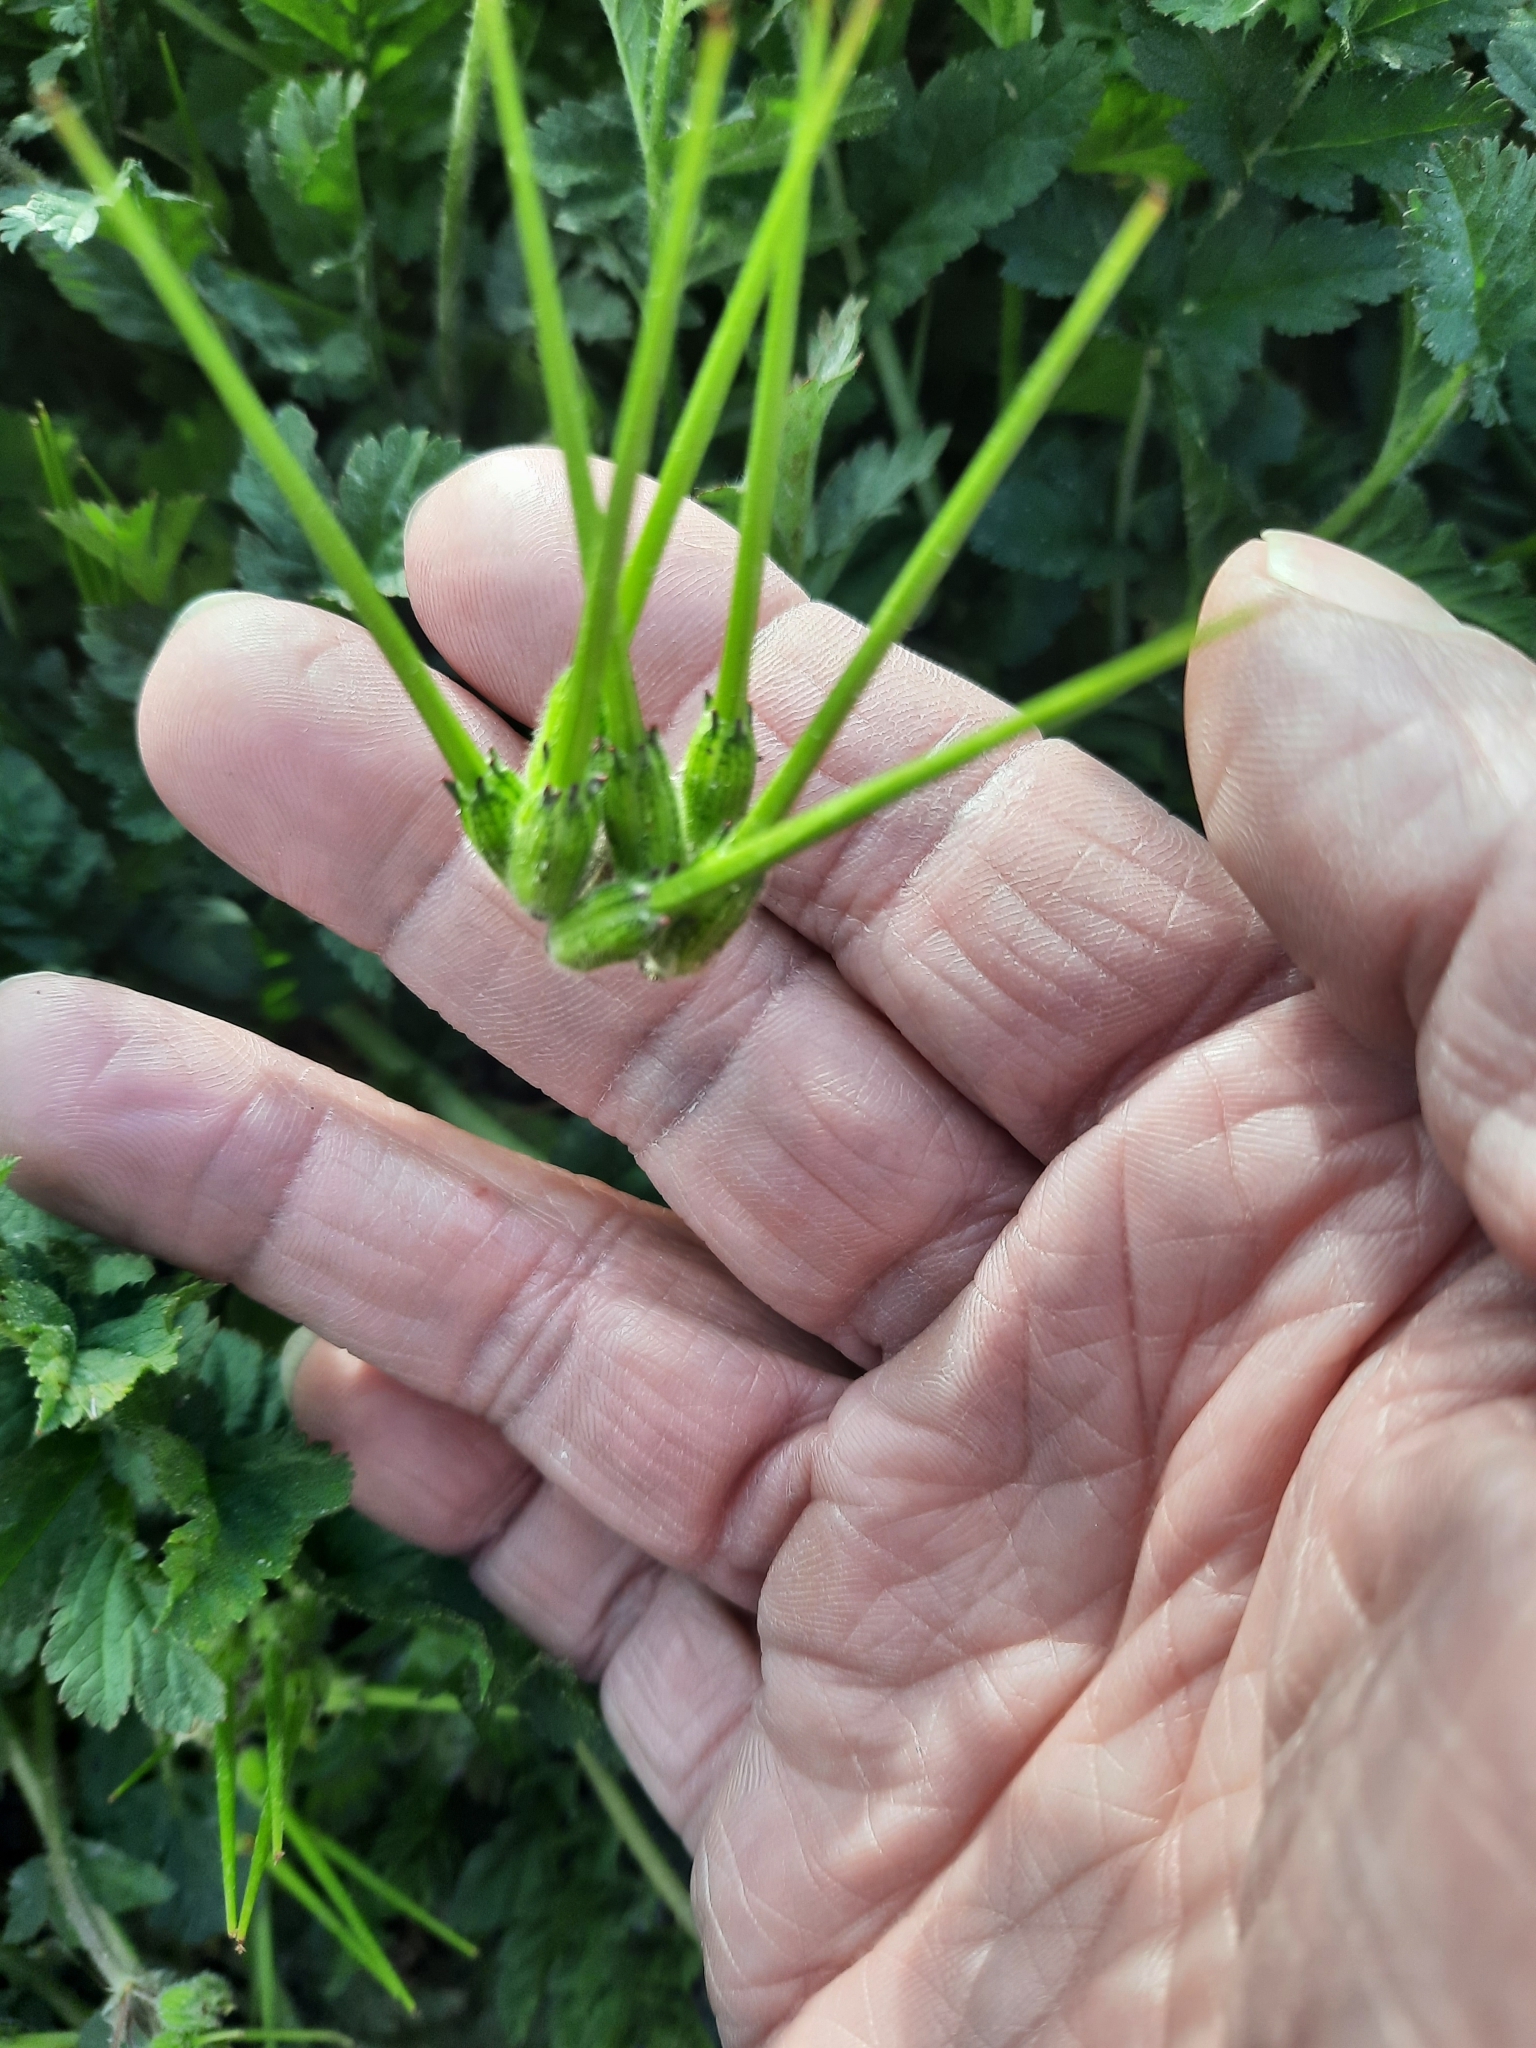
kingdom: Plantae
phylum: Tracheophyta
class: Magnoliopsida
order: Geraniales
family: Geraniaceae
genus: Erodium
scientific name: Erodium moschatum
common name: Musk stork's-bill
